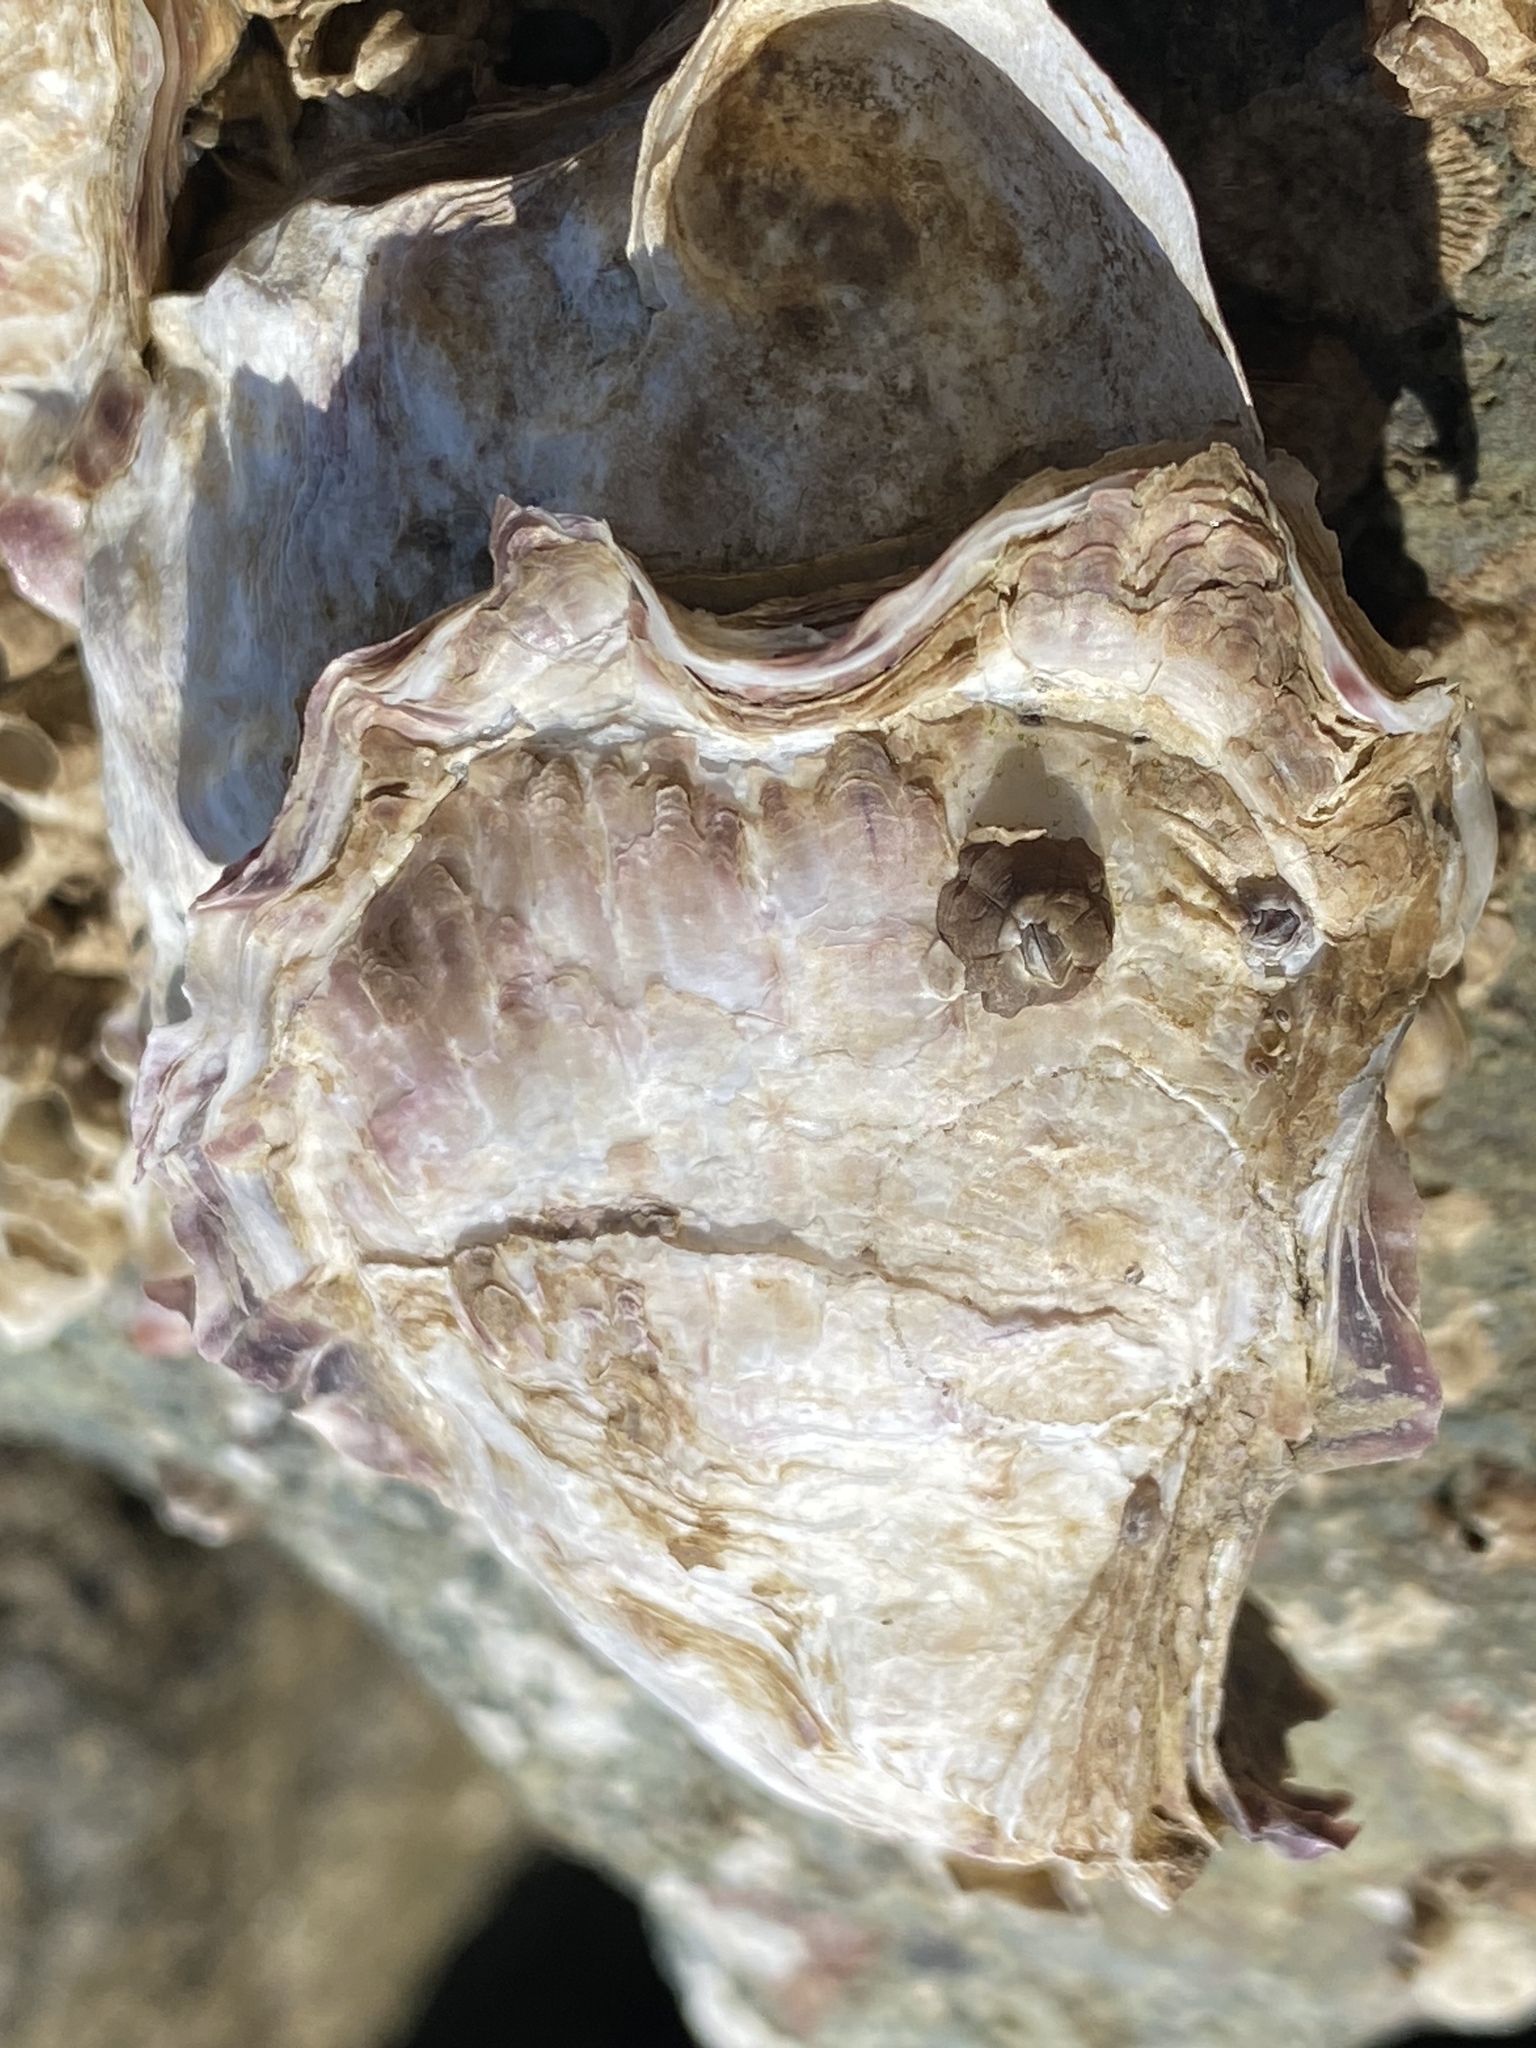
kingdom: Animalia
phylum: Mollusca
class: Bivalvia
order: Ostreida
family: Ostreidae
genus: Magallana
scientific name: Magallana gigas
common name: Pacific oyster
